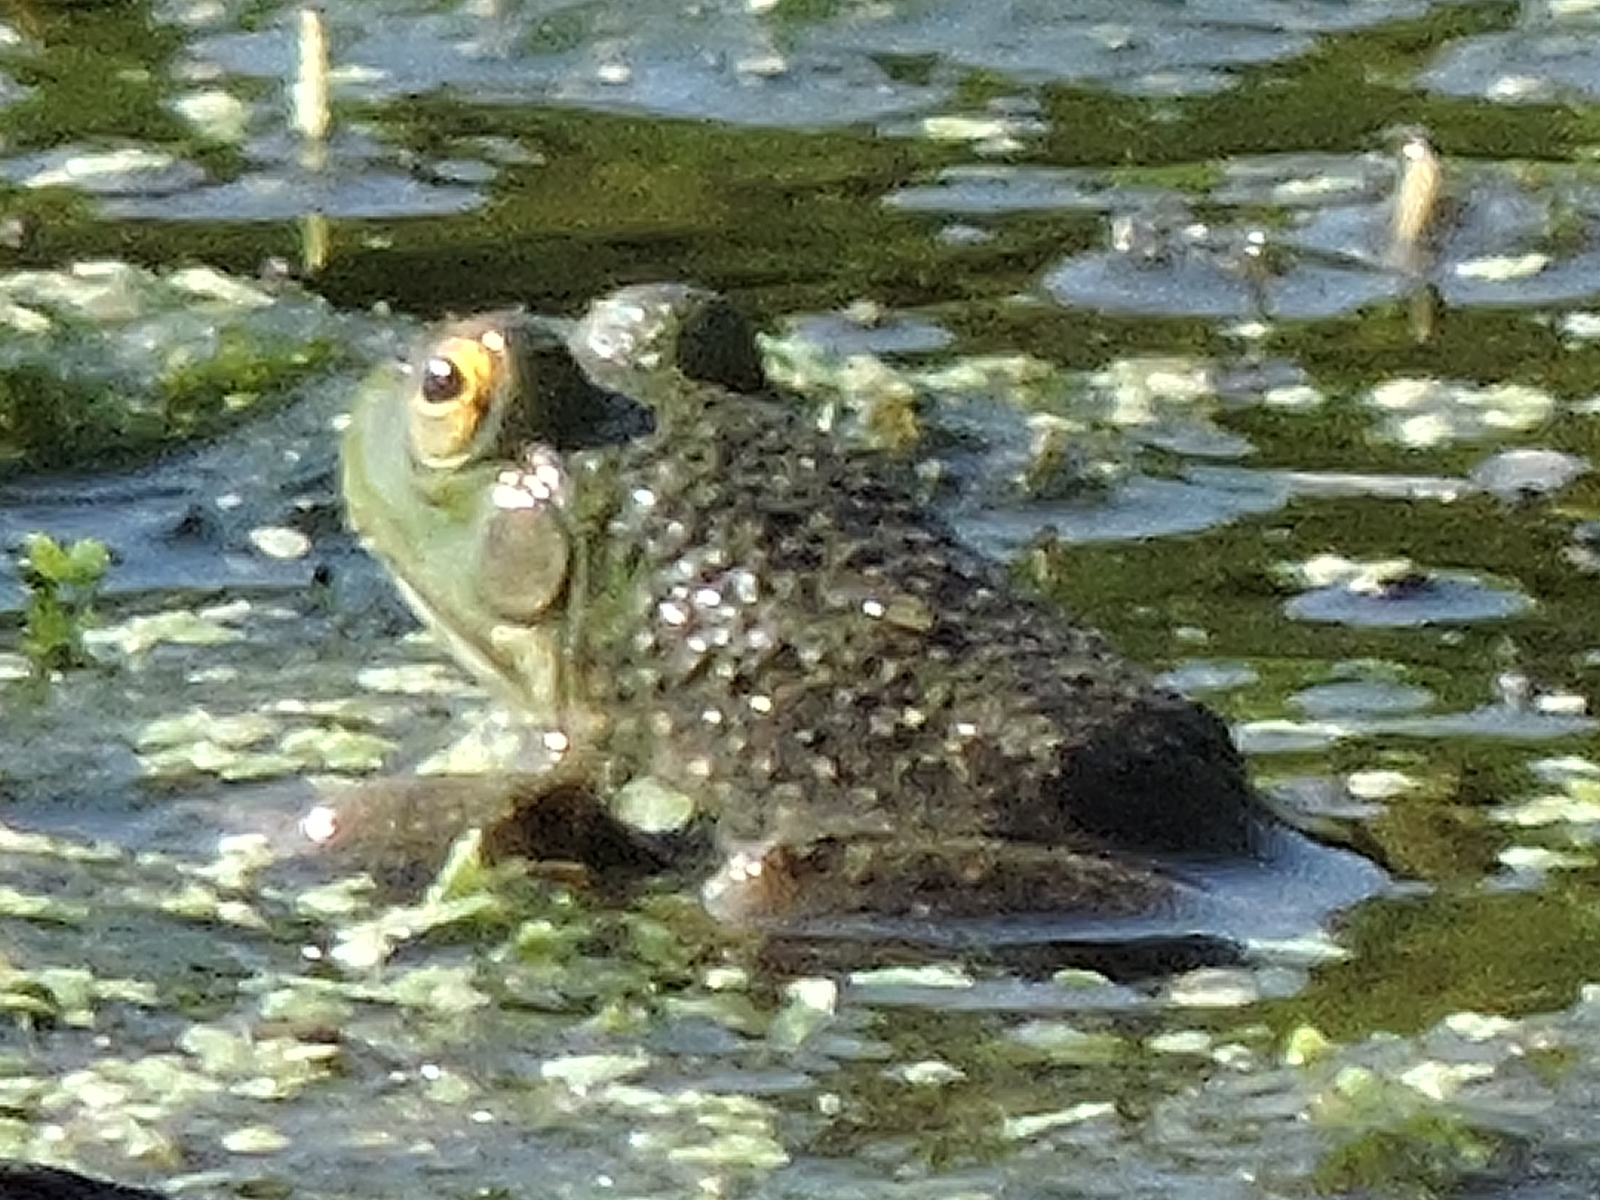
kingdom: Animalia
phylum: Chordata
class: Amphibia
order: Anura
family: Ranidae
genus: Lithobates
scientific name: Lithobates catesbeianus
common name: American bullfrog
